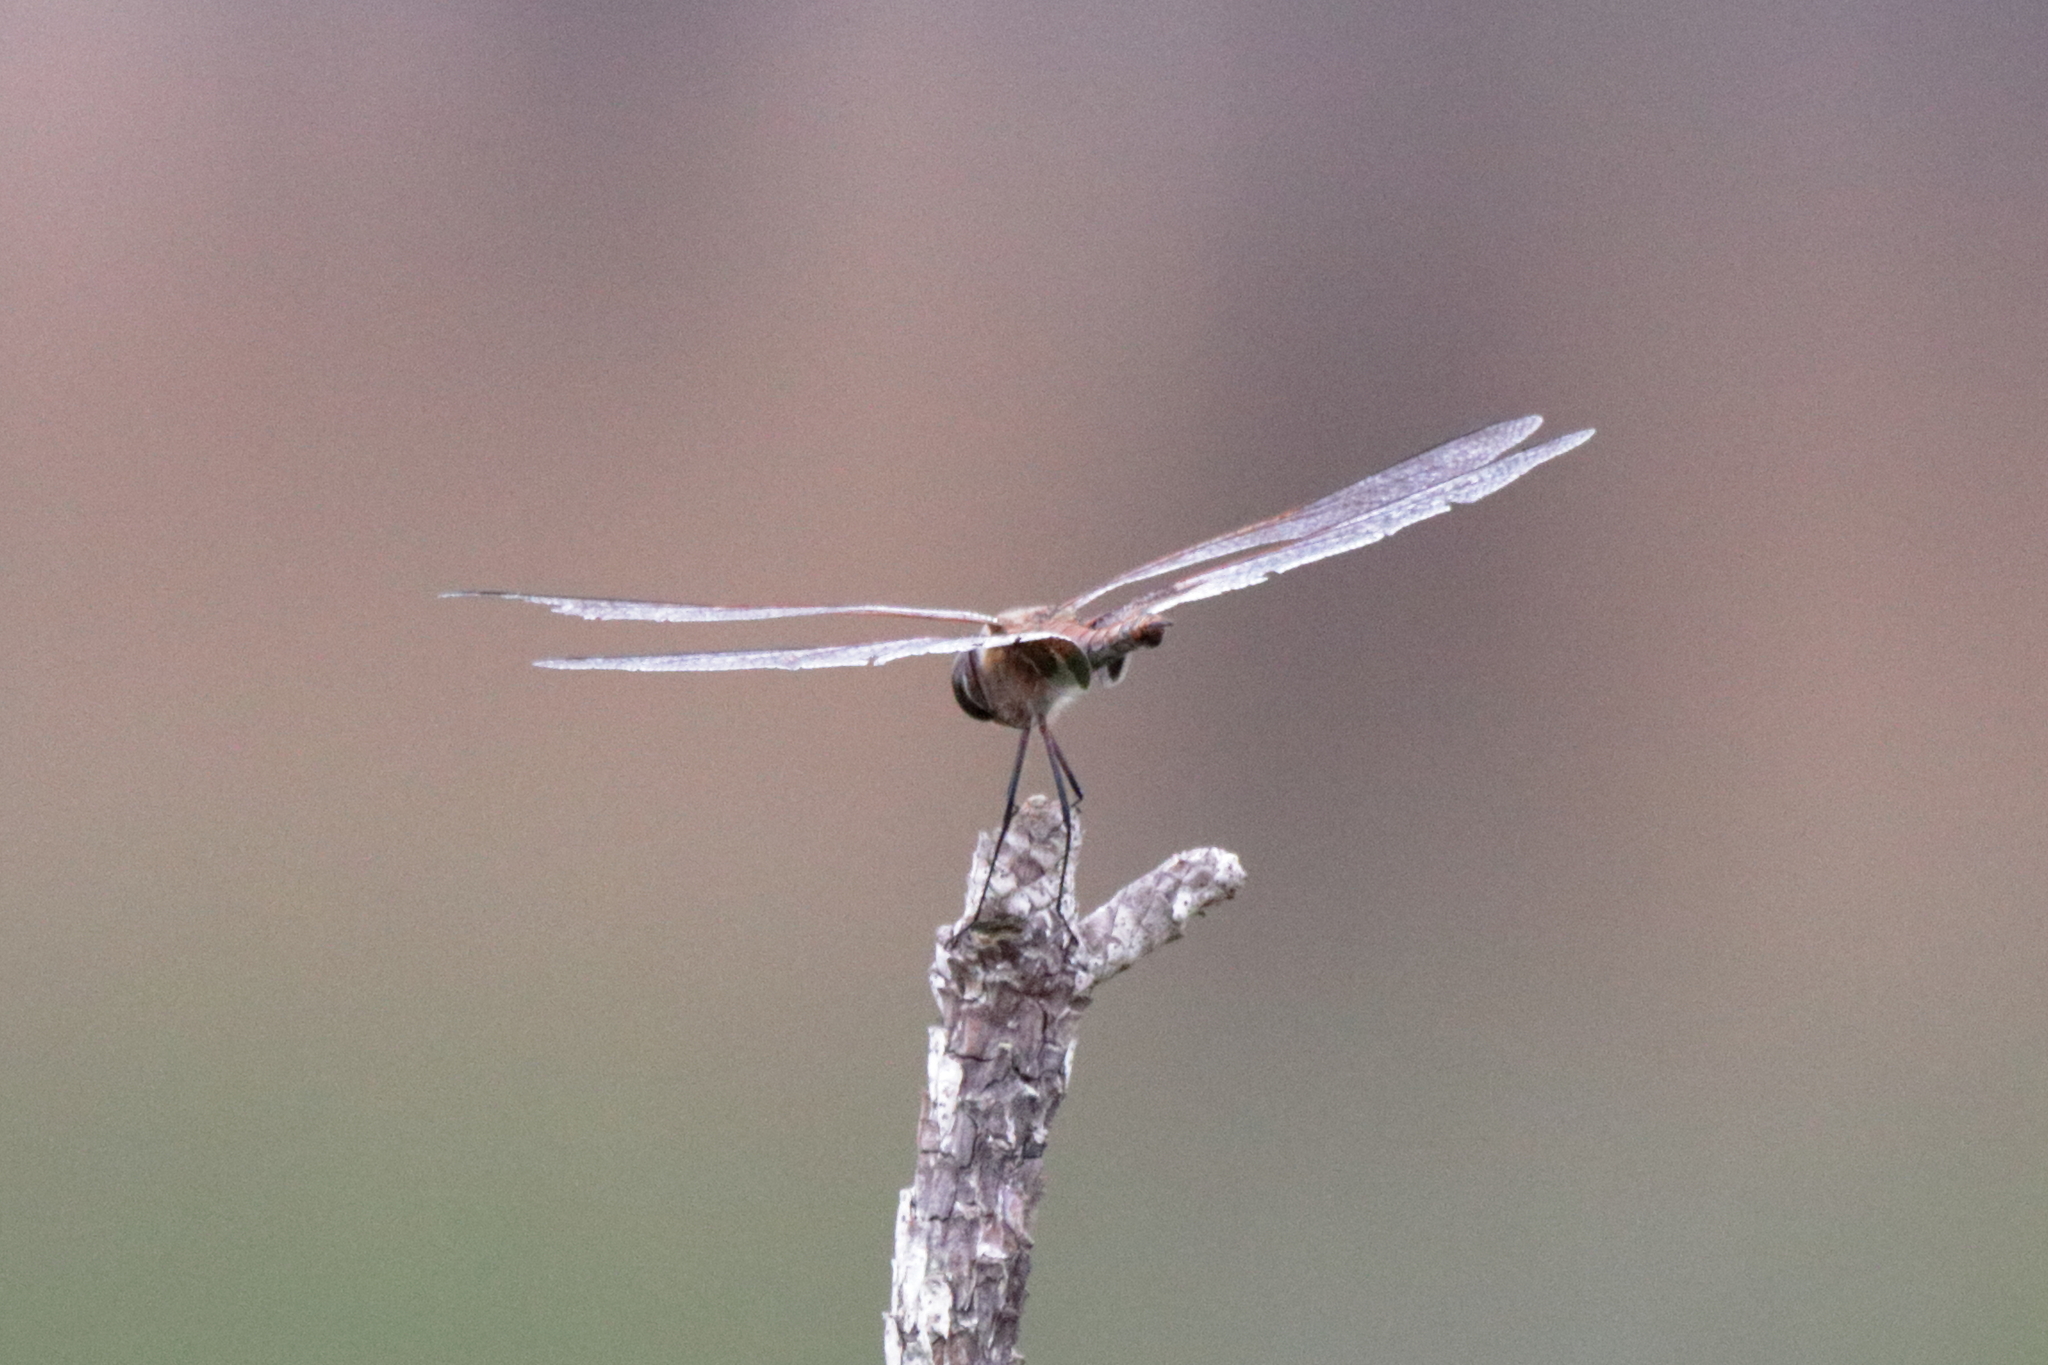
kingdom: Animalia
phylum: Arthropoda
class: Insecta
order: Odonata
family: Libellulidae
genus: Tramea
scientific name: Tramea carolina
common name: Carolina saddlebags
